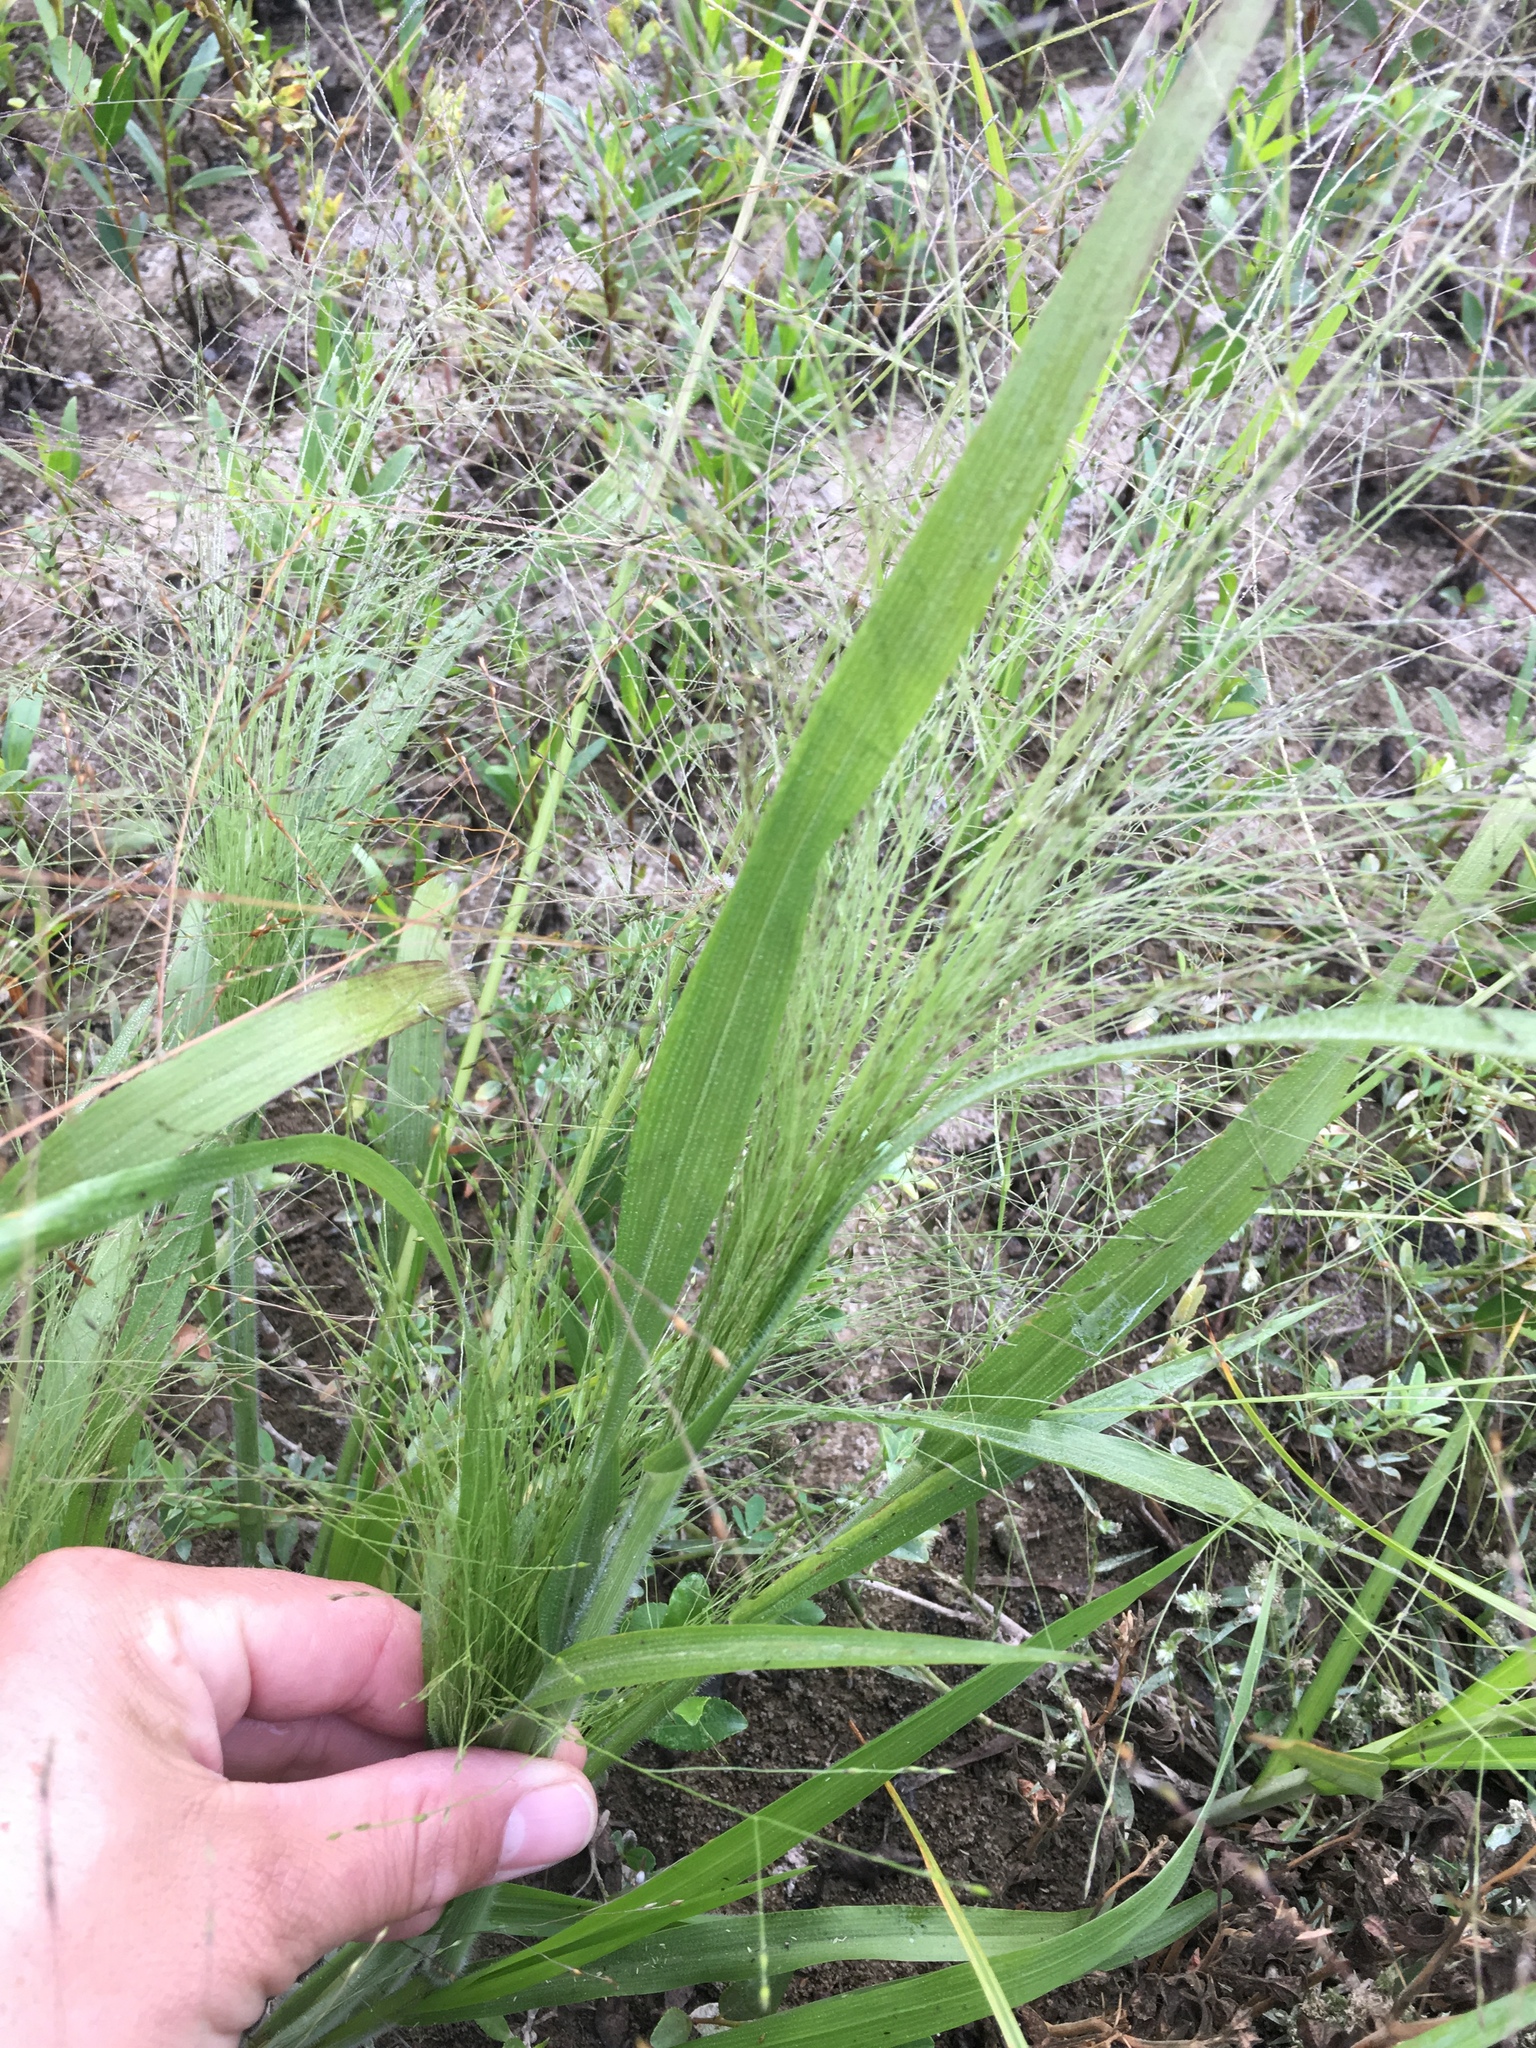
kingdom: Plantae
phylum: Tracheophyta
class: Liliopsida
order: Poales
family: Poaceae
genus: Panicum
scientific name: Panicum capillare
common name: Witch-grass
